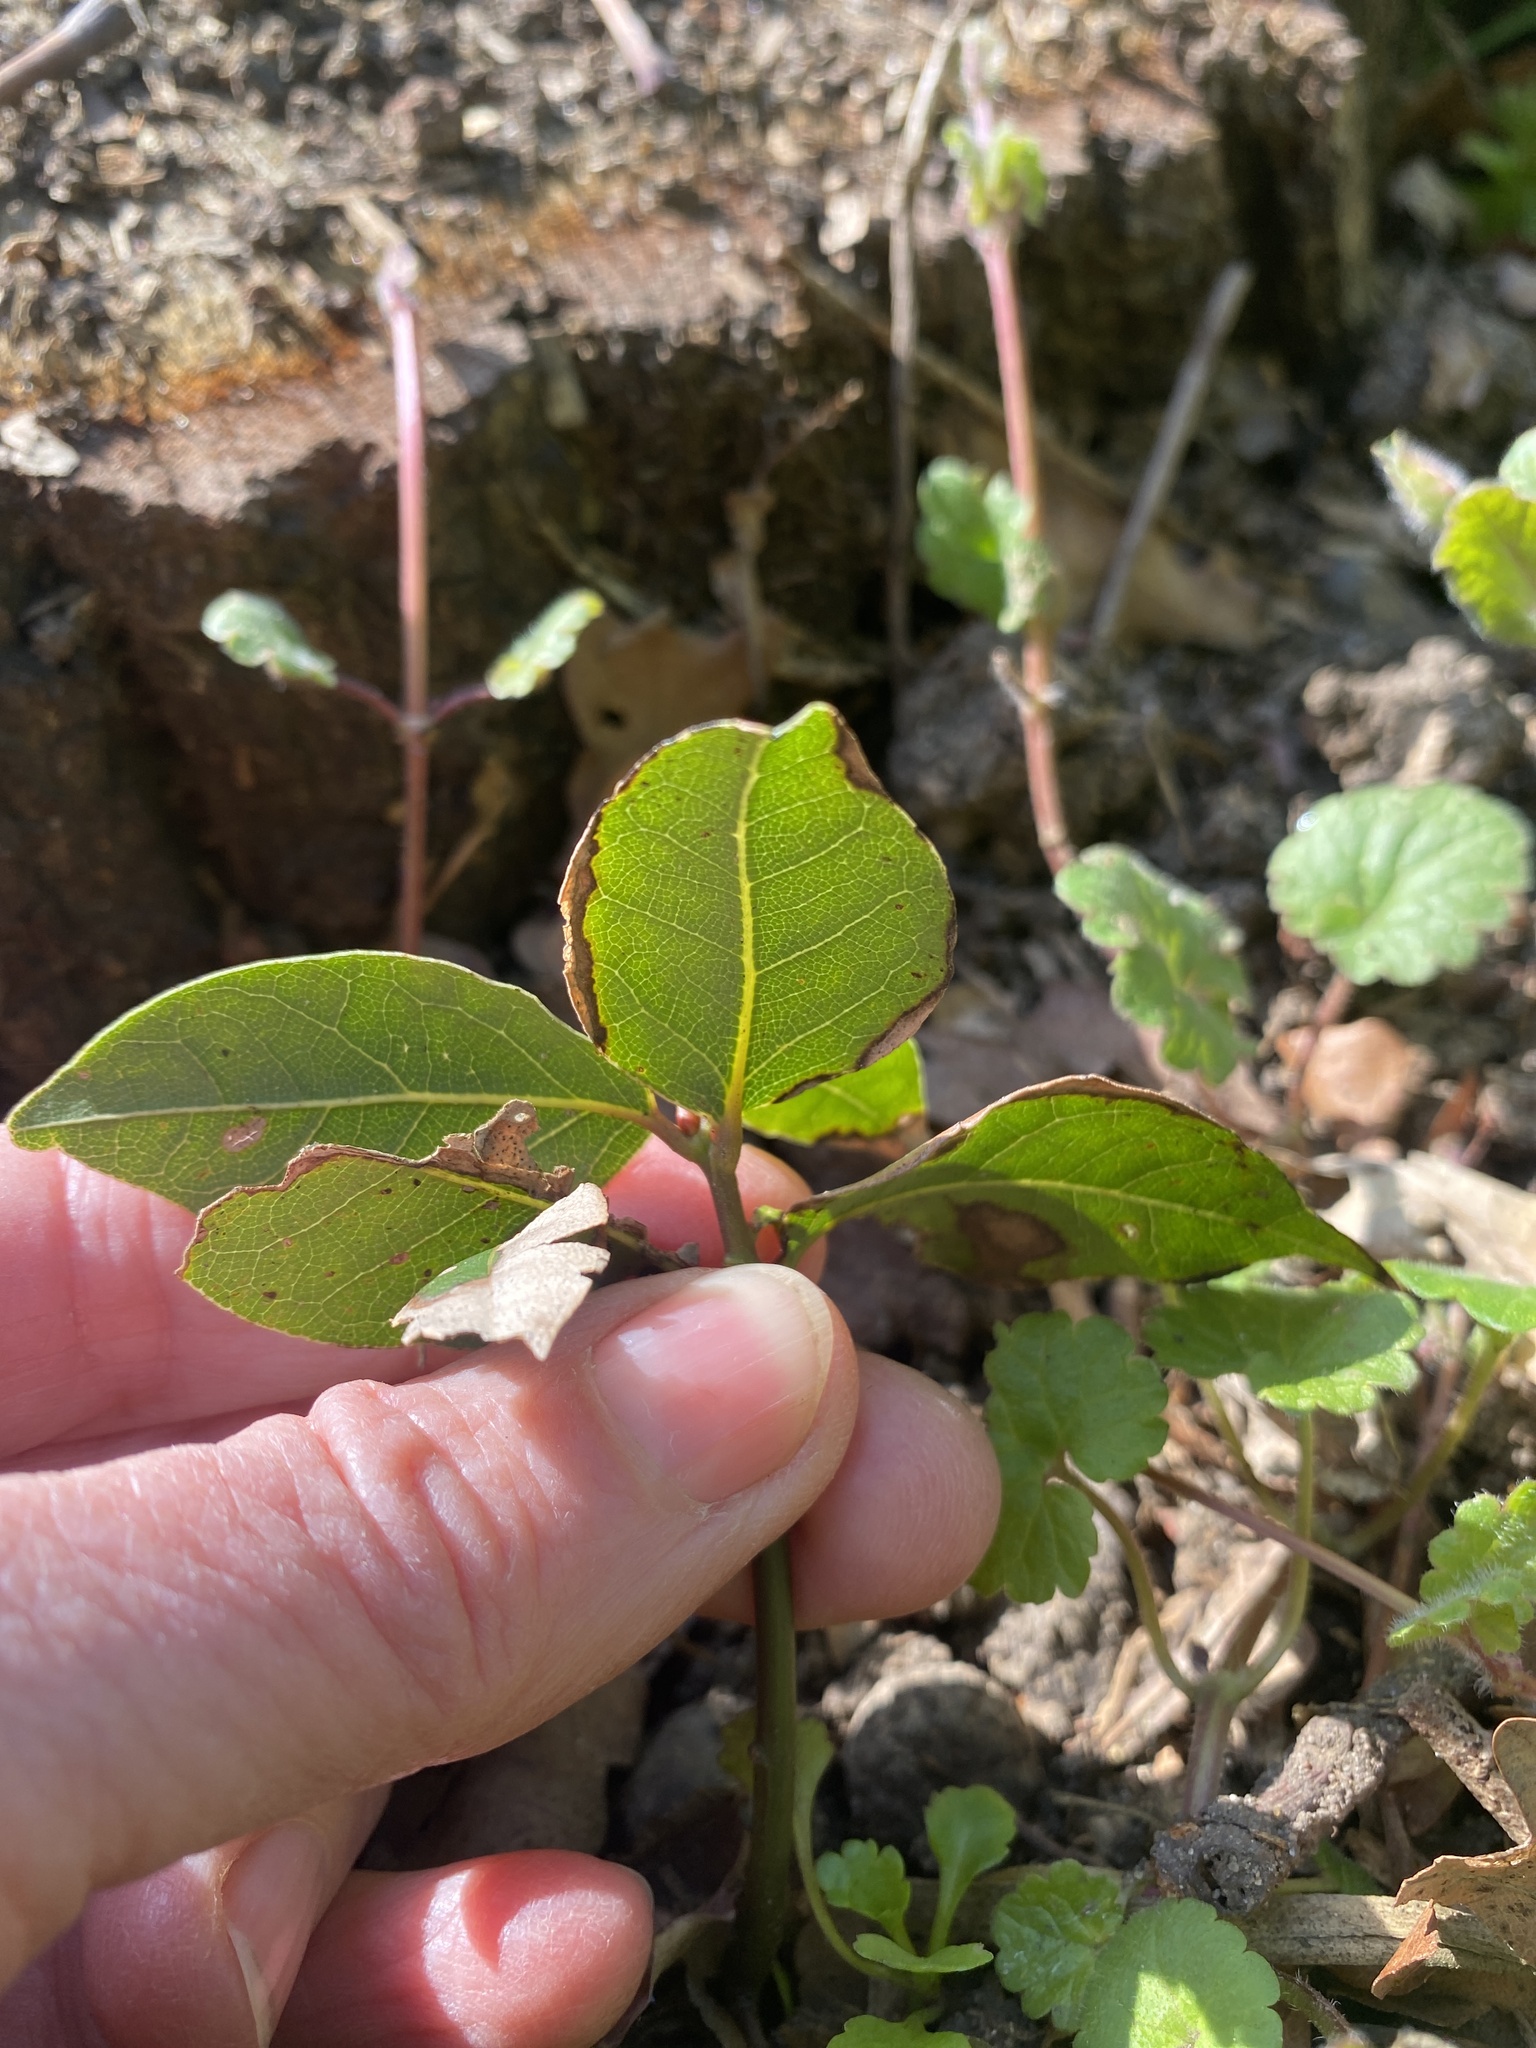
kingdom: Plantae
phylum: Tracheophyta
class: Magnoliopsida
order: Fagales
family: Fagaceae
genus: Quercus
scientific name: Quercus ilex
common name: Evergreen oak
